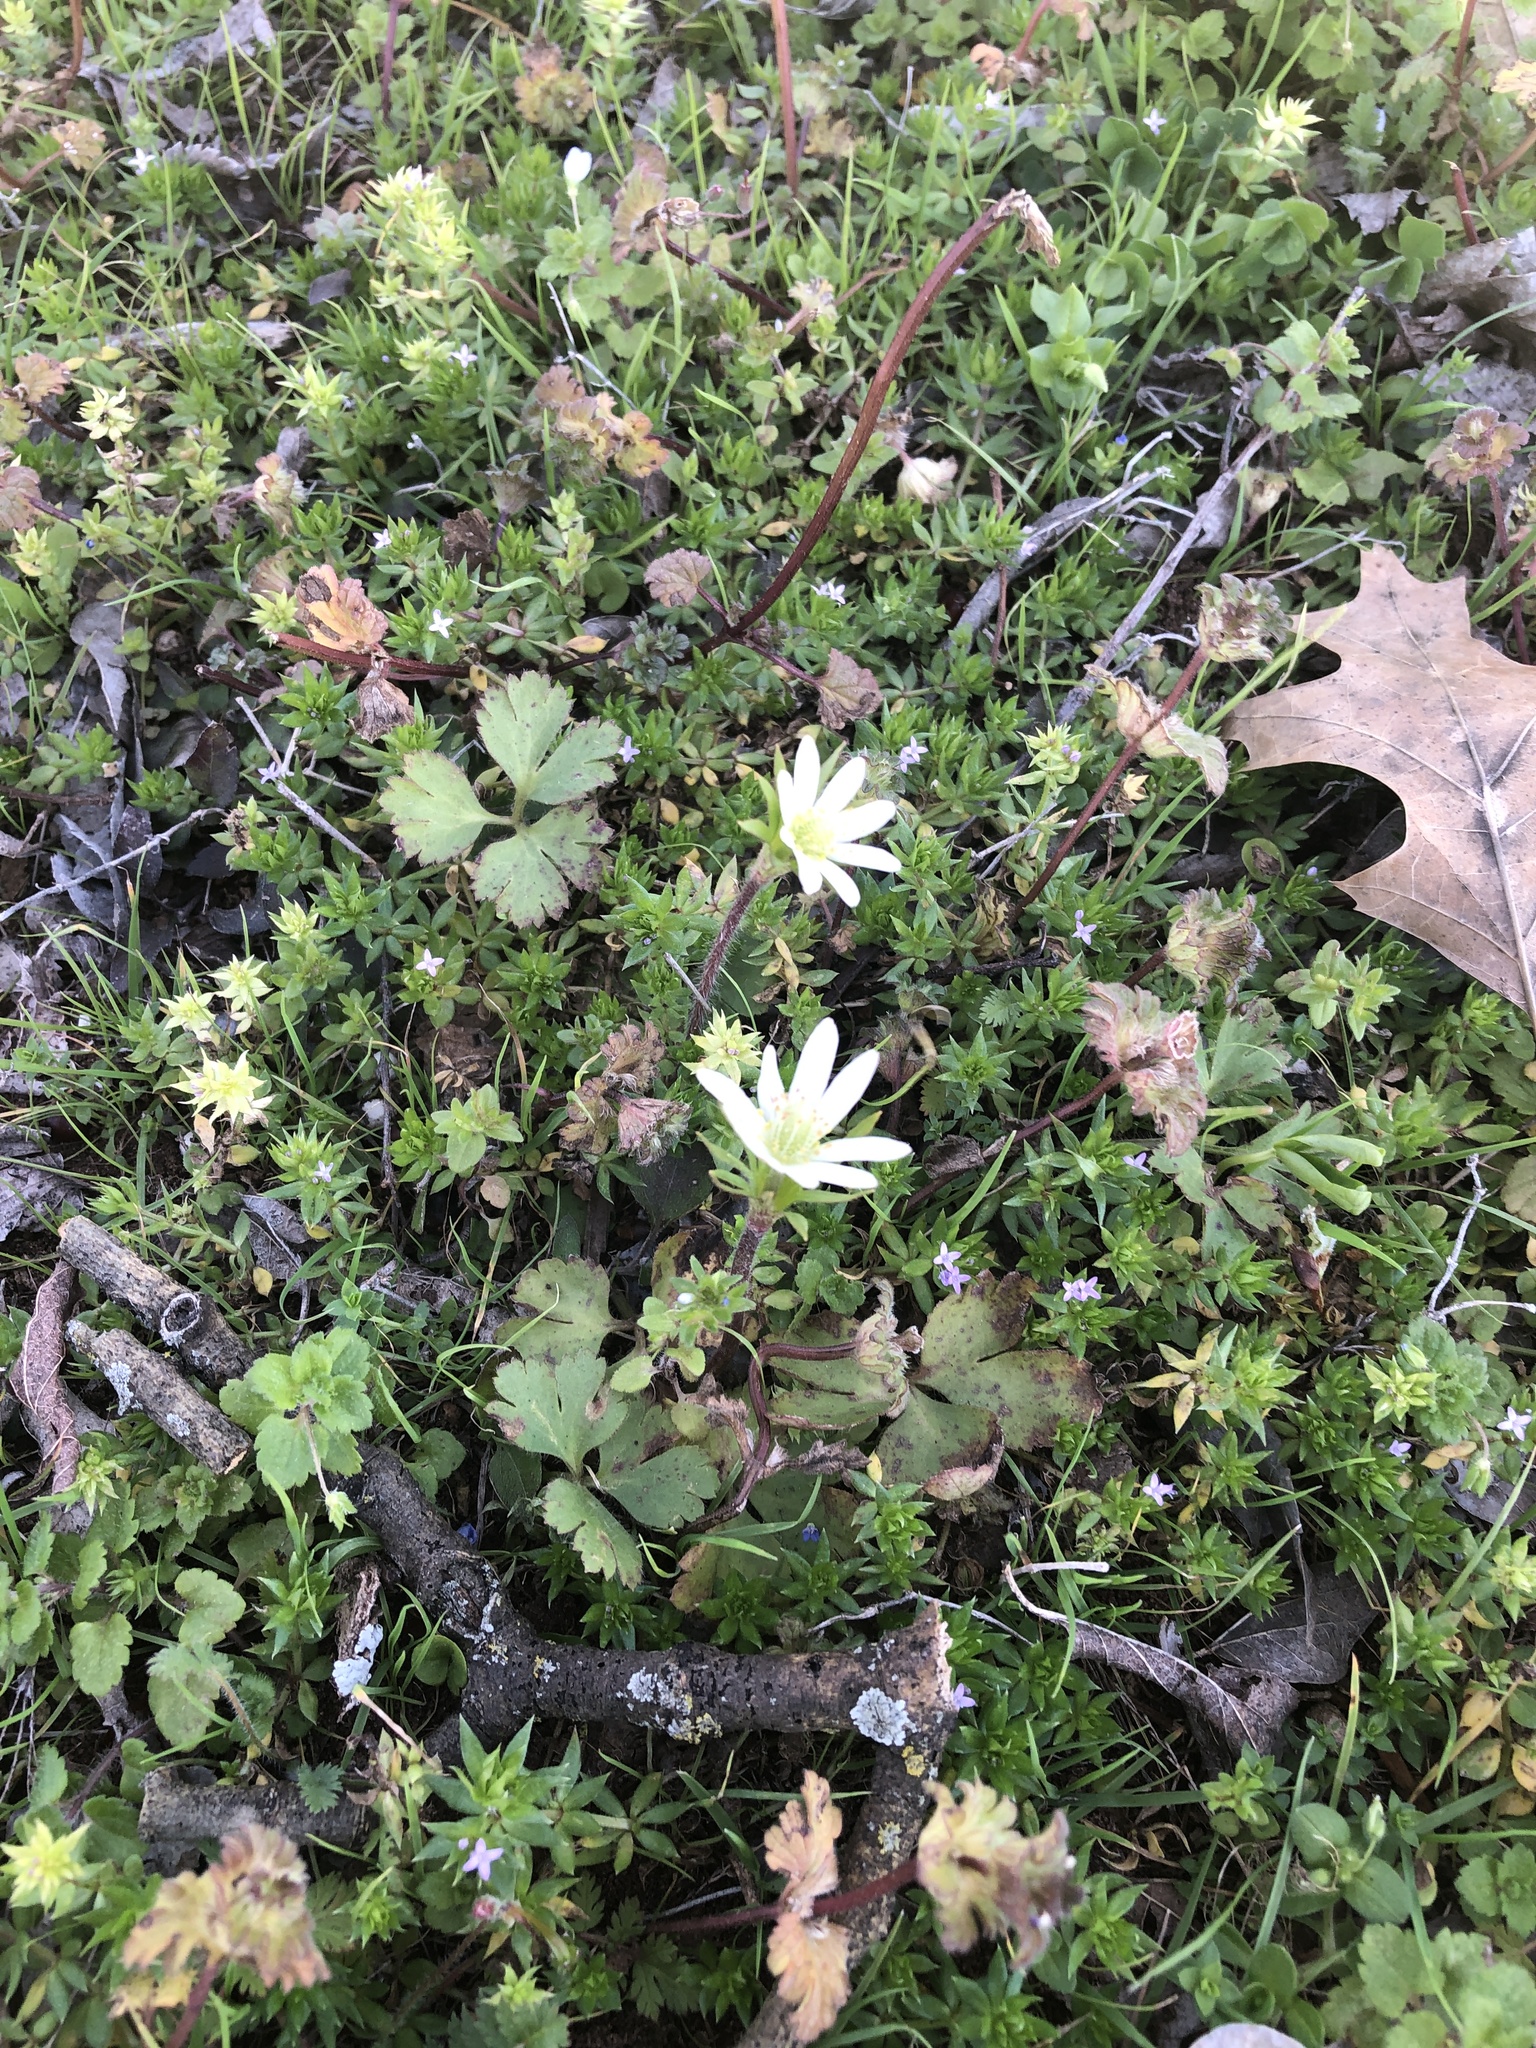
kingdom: Plantae
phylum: Tracheophyta
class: Magnoliopsida
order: Ranunculales
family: Ranunculaceae
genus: Anemone
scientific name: Anemone berlandieri
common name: Ten-petal anemone
